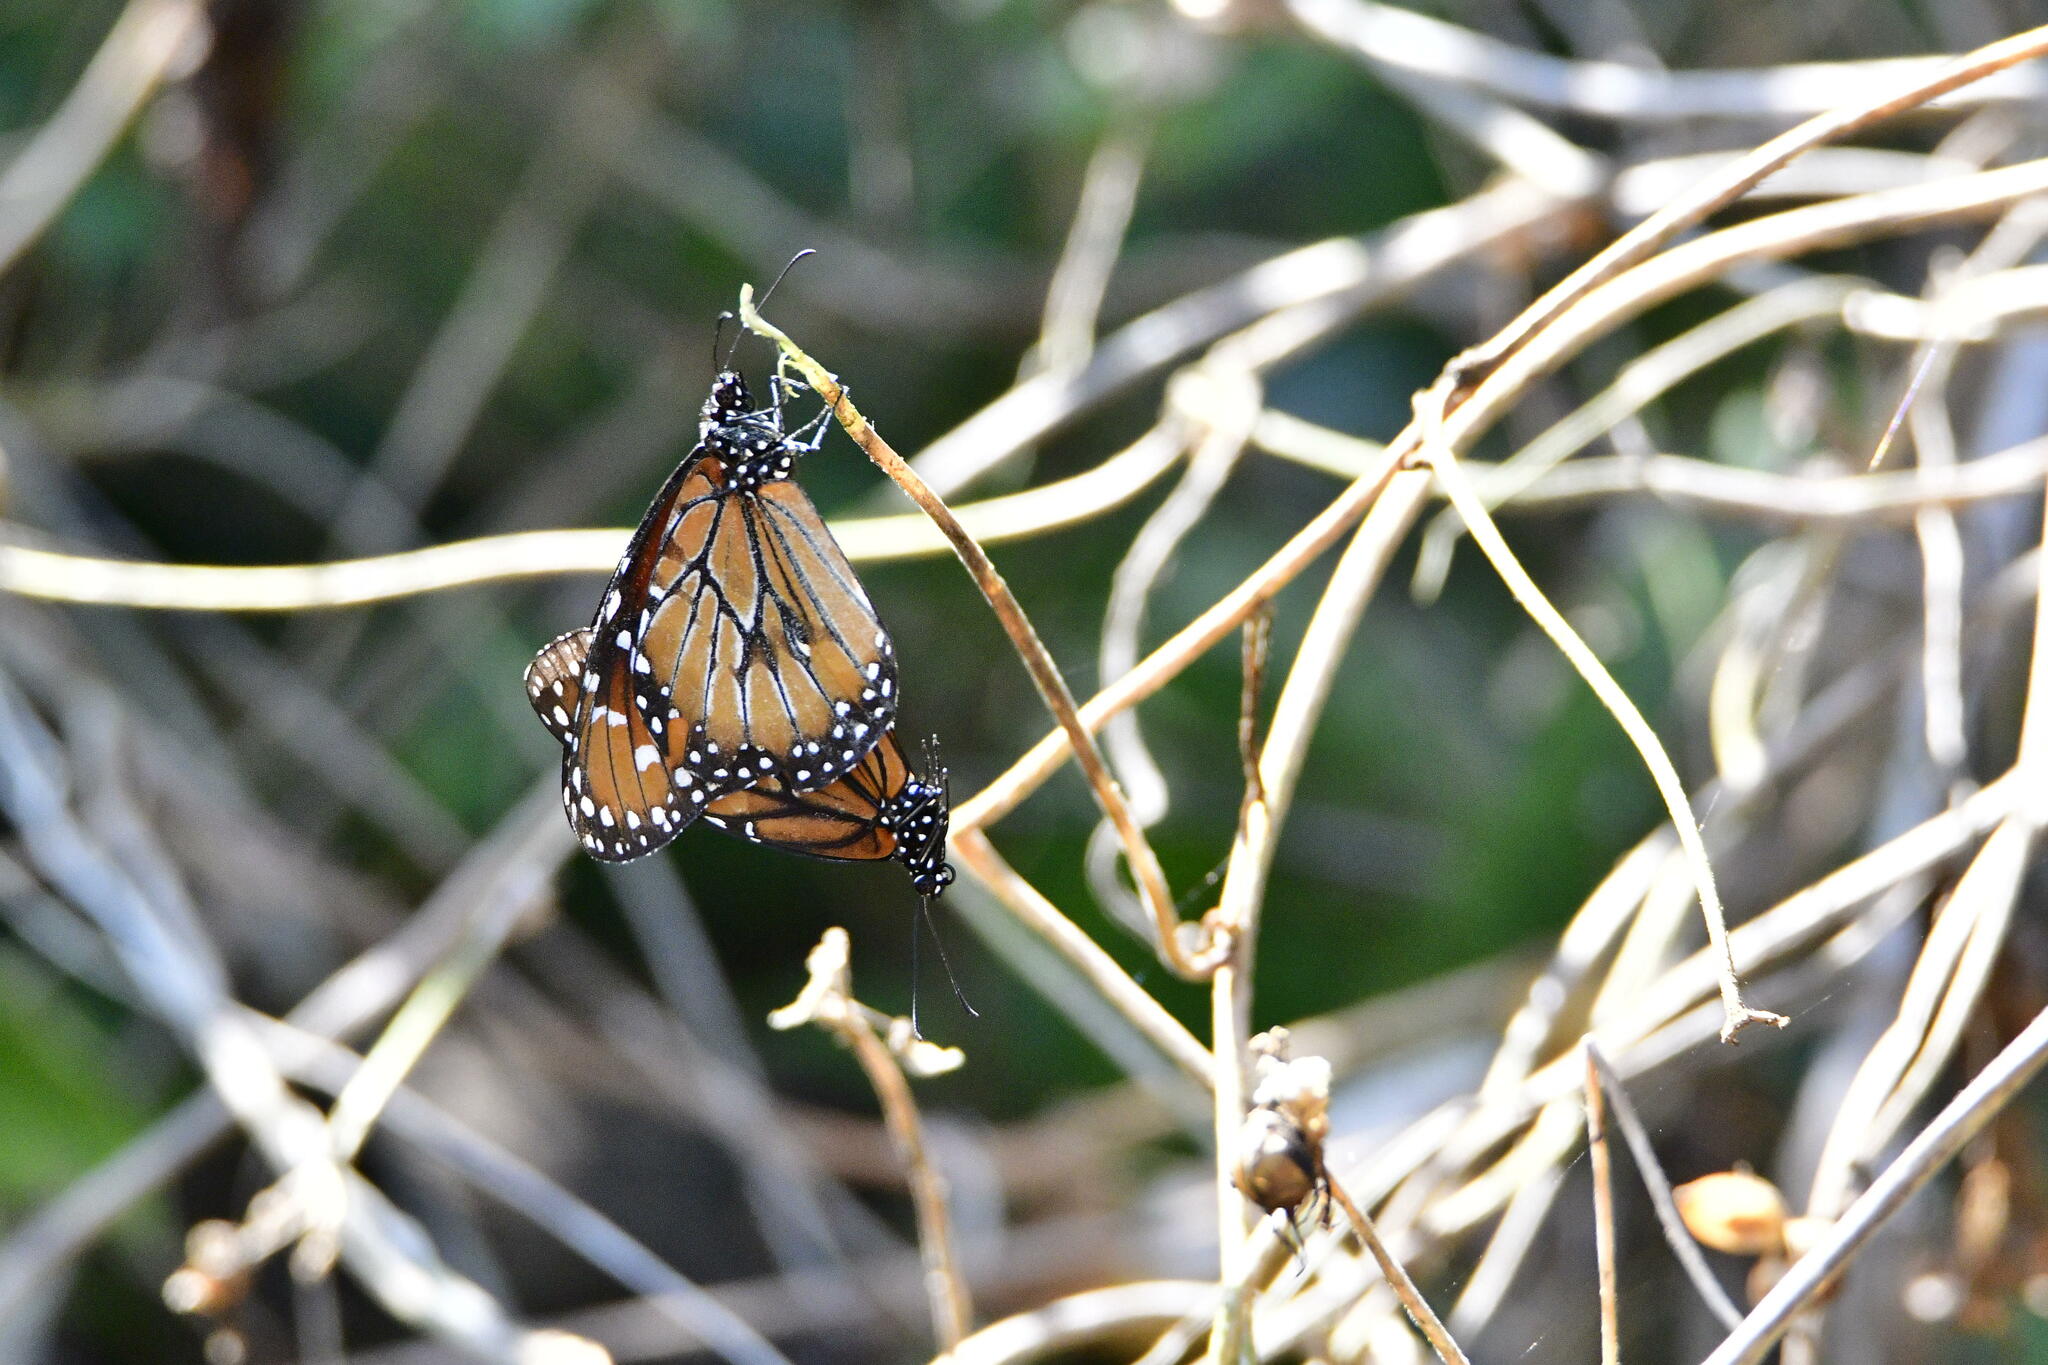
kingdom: Animalia
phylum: Arthropoda
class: Insecta
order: Lepidoptera
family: Nymphalidae
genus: Danaus
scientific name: Danaus eresimus
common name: Soldier
